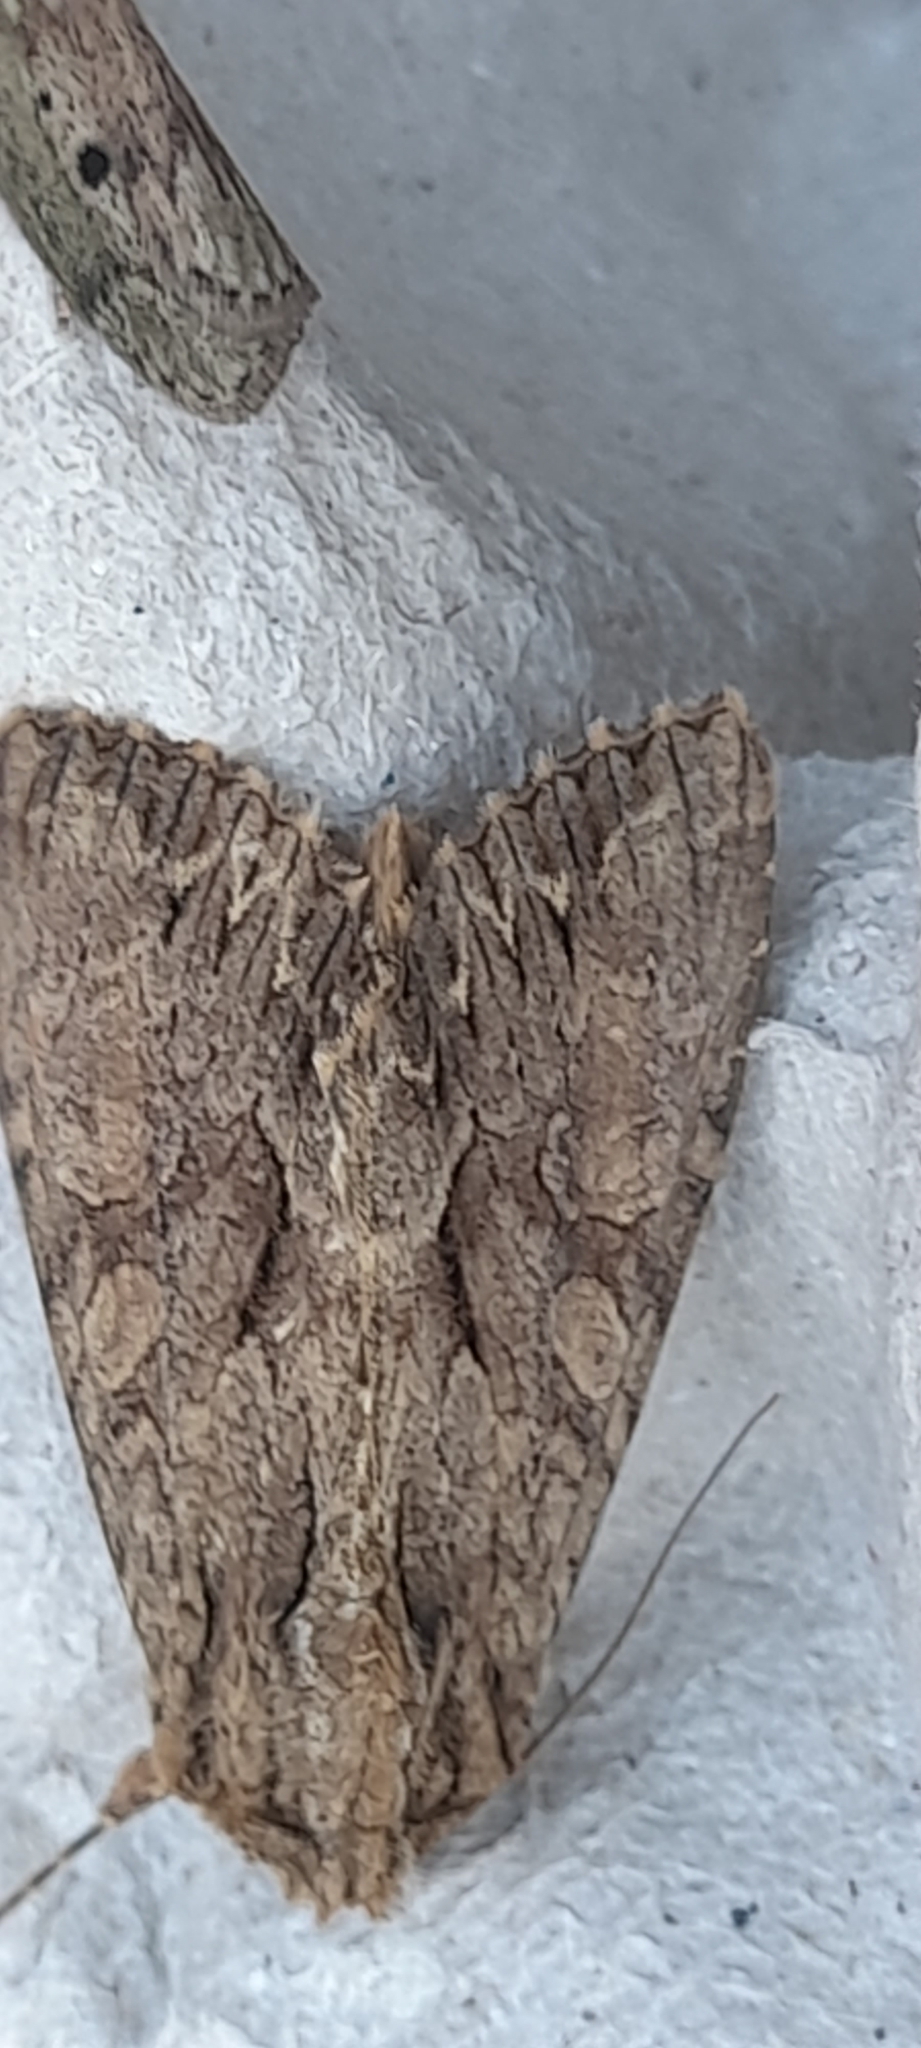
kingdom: Animalia
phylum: Arthropoda
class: Insecta
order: Lepidoptera
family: Noctuidae
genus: Apamea
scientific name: Apamea monoglypha
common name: Dark arches
